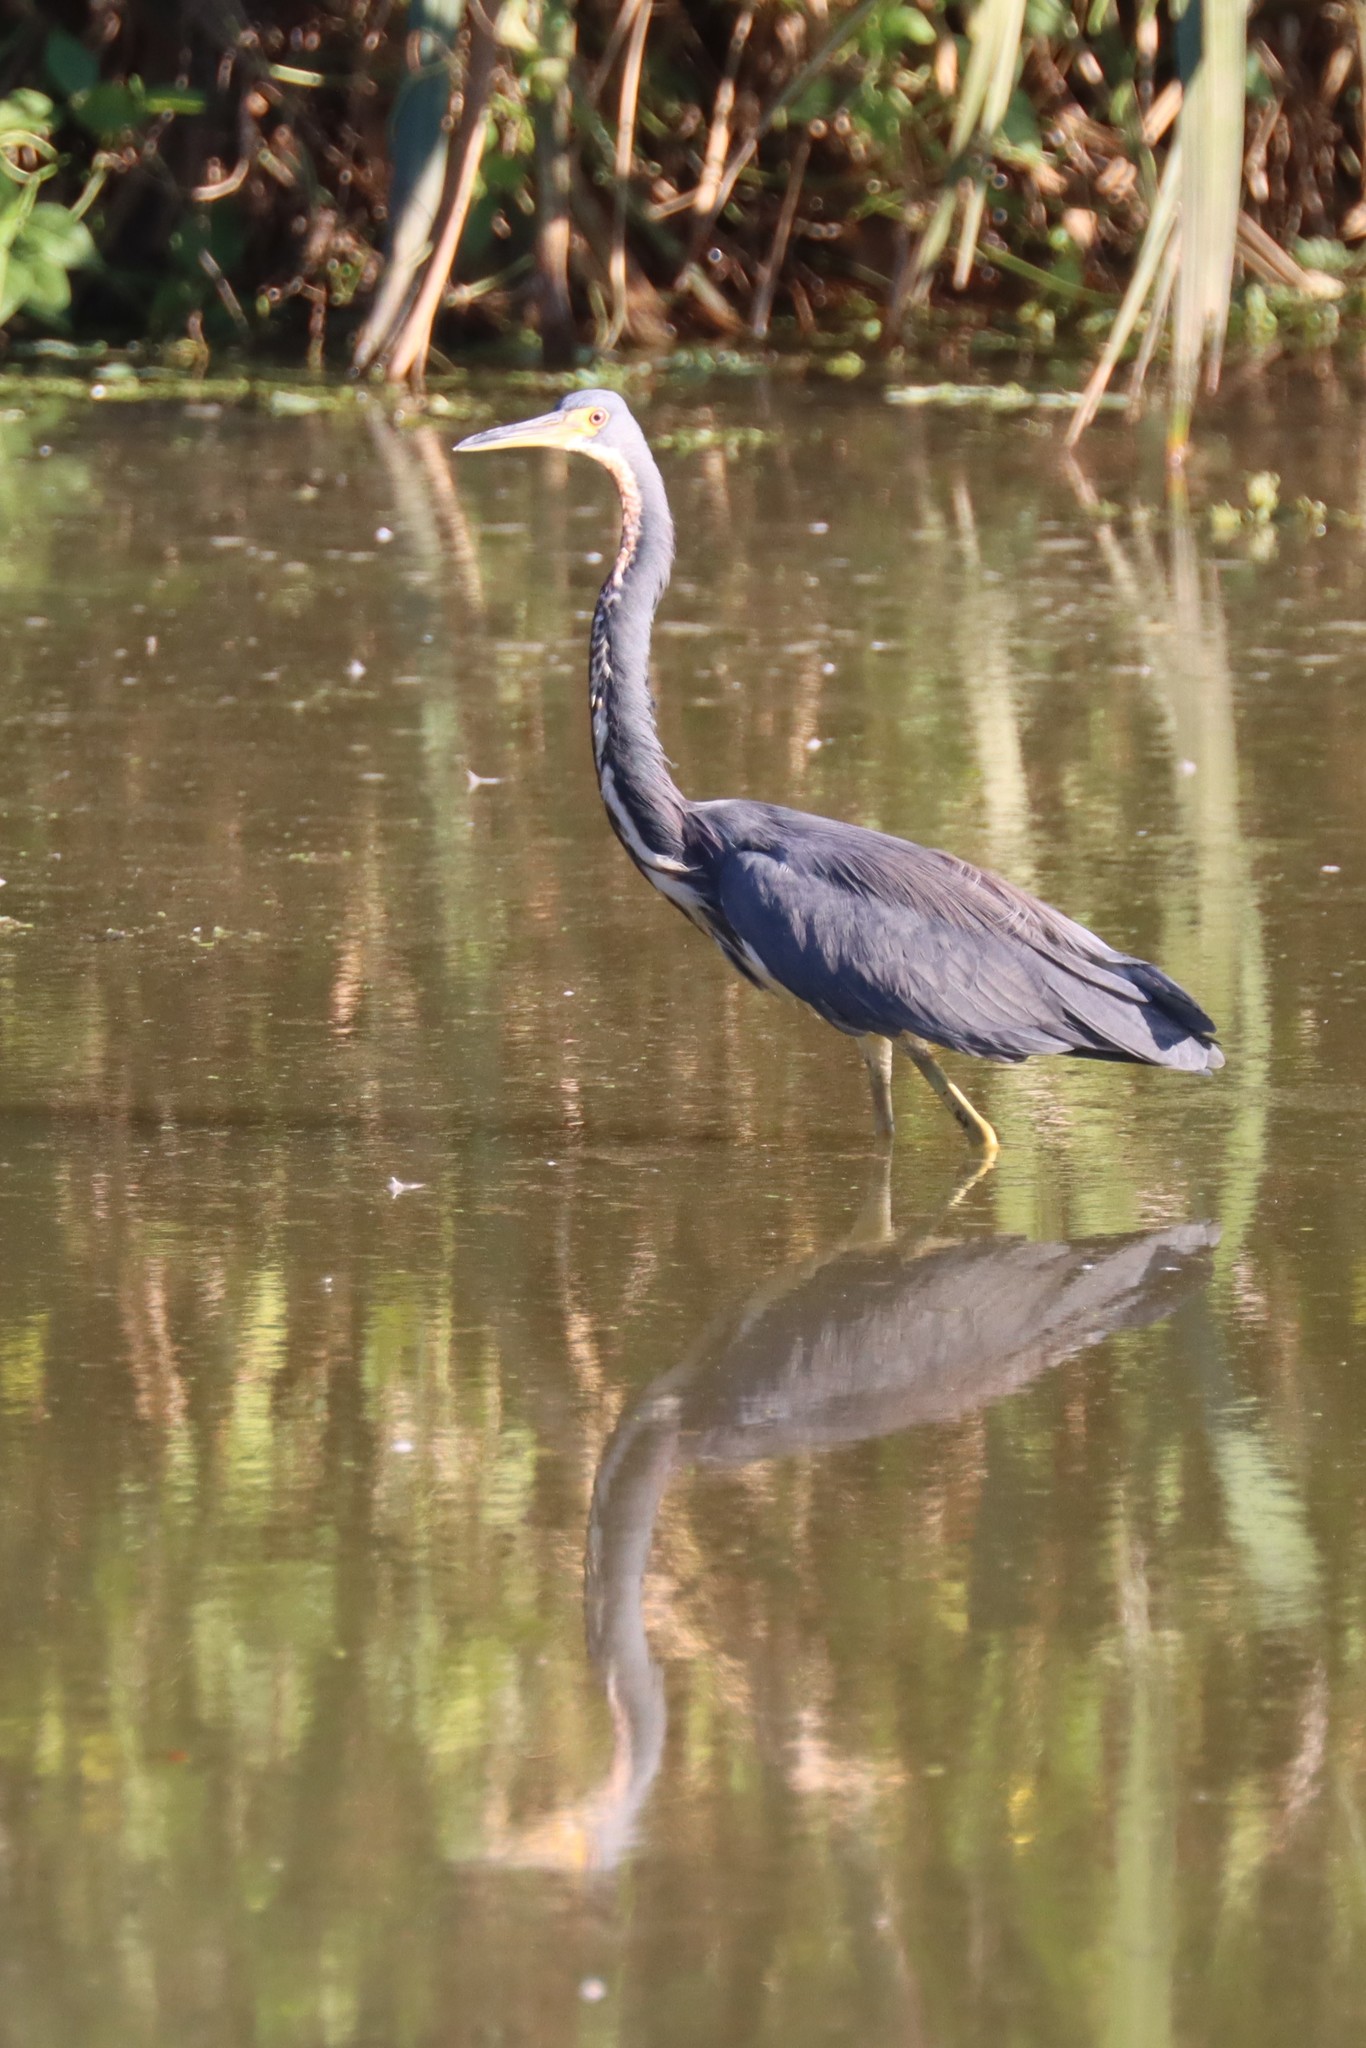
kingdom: Animalia
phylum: Chordata
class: Aves
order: Pelecaniformes
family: Ardeidae
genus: Egretta
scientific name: Egretta tricolor
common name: Tricolored heron
